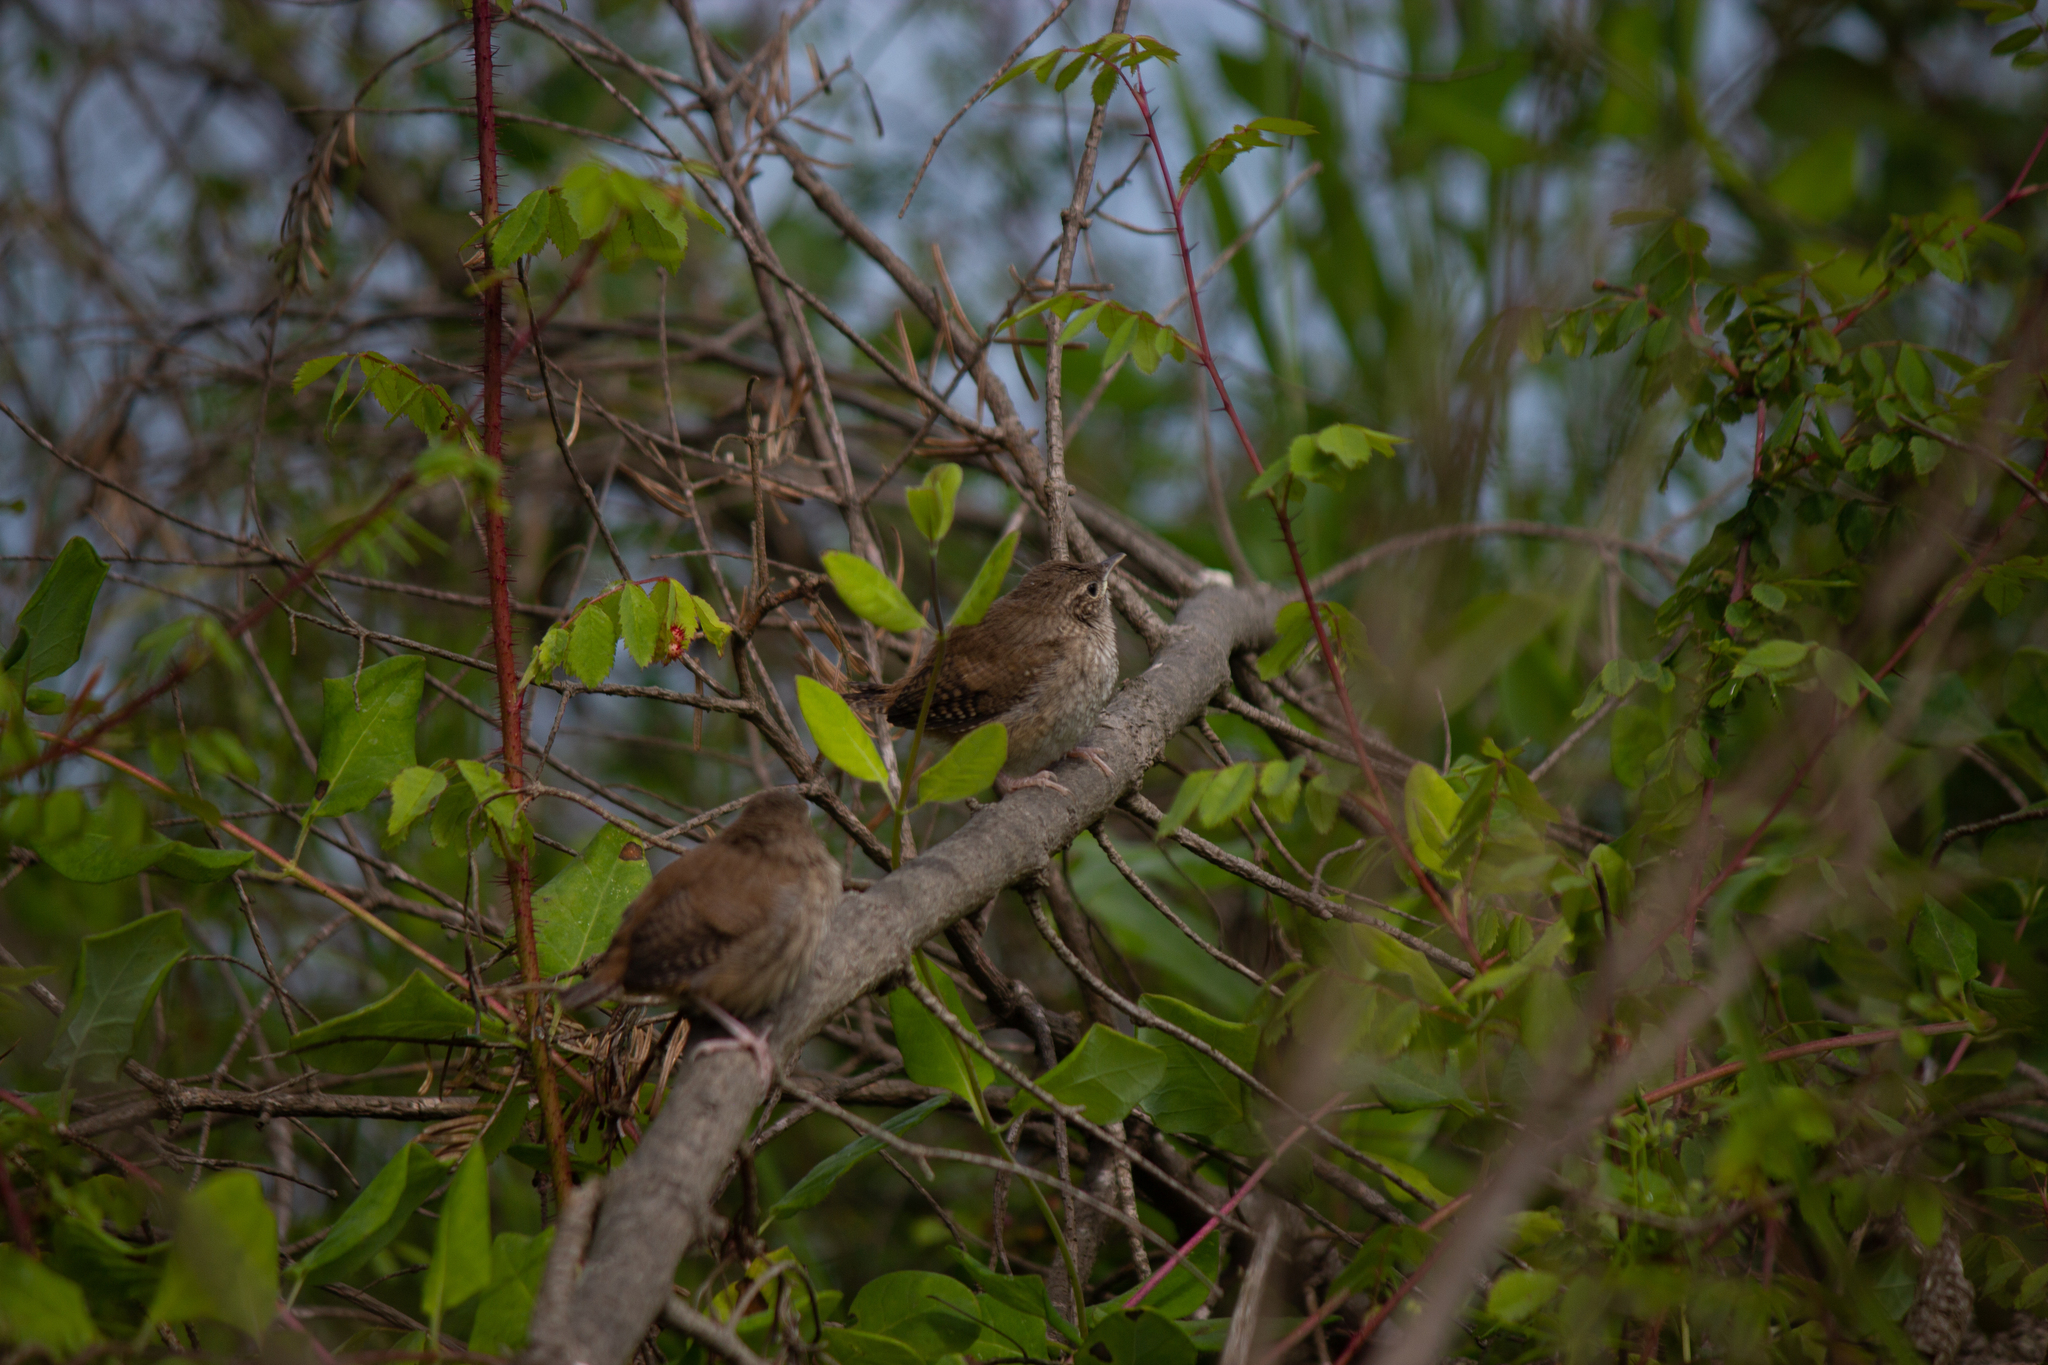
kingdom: Animalia
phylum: Chordata
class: Aves
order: Passeriformes
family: Troglodytidae
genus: Troglodytes
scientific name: Troglodytes aedon
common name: House wren
